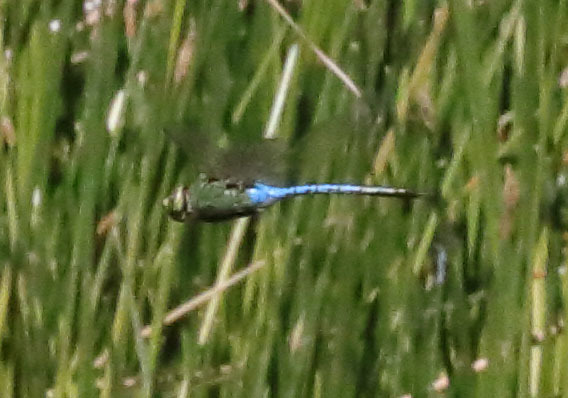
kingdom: Animalia
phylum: Arthropoda
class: Insecta
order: Odonata
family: Aeshnidae
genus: Anax
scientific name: Anax junius
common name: Common green darner
